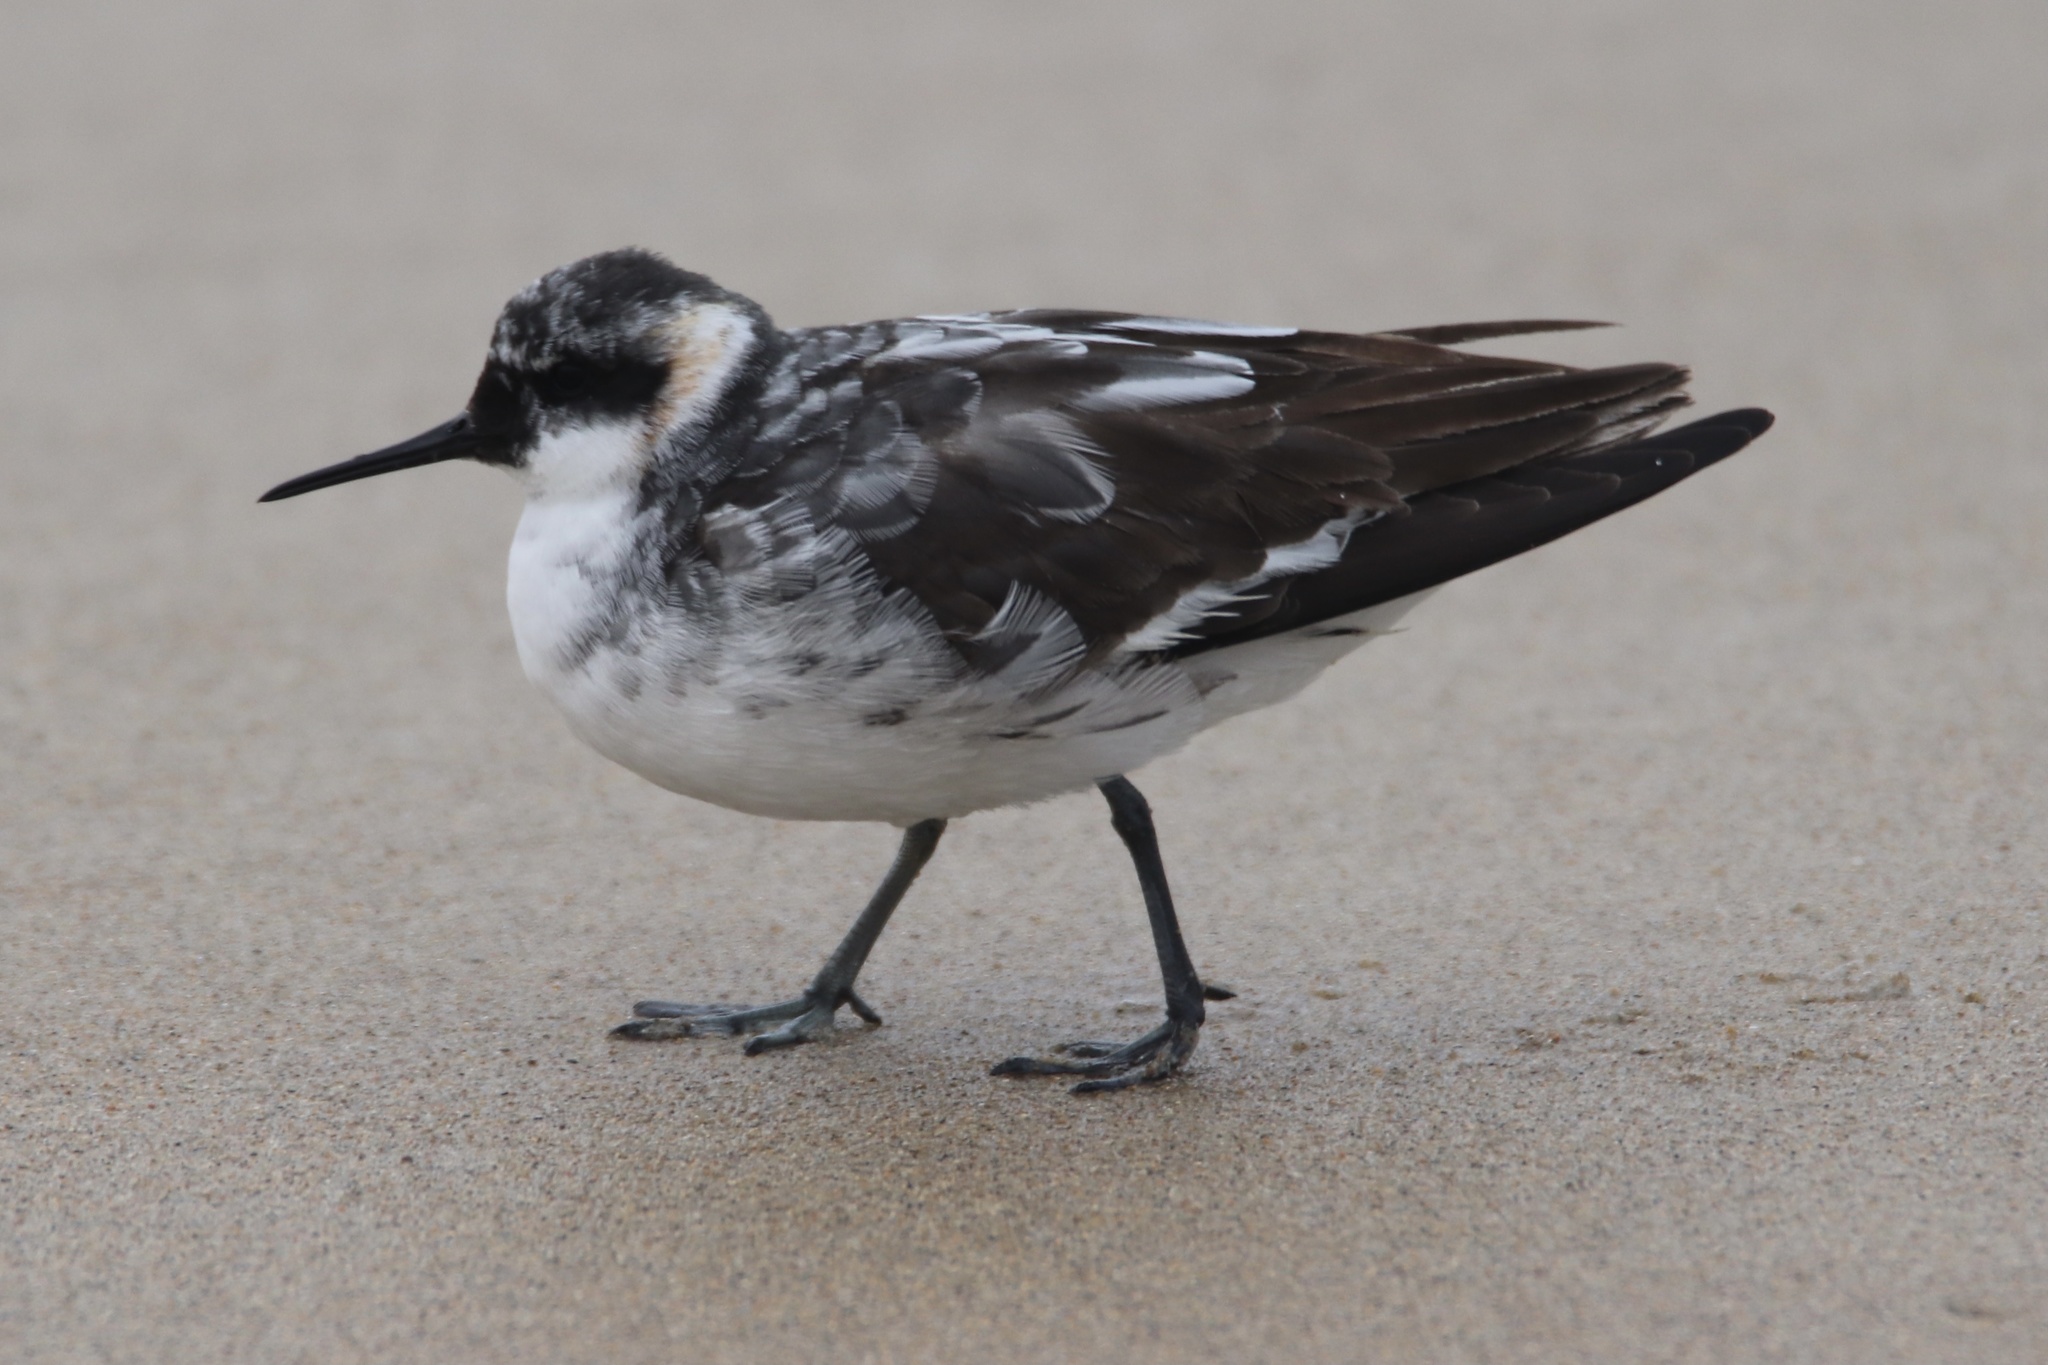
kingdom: Animalia
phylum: Chordata
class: Aves
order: Charadriiformes
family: Scolopacidae
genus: Phalaropus
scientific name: Phalaropus lobatus
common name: Red-necked phalarope
